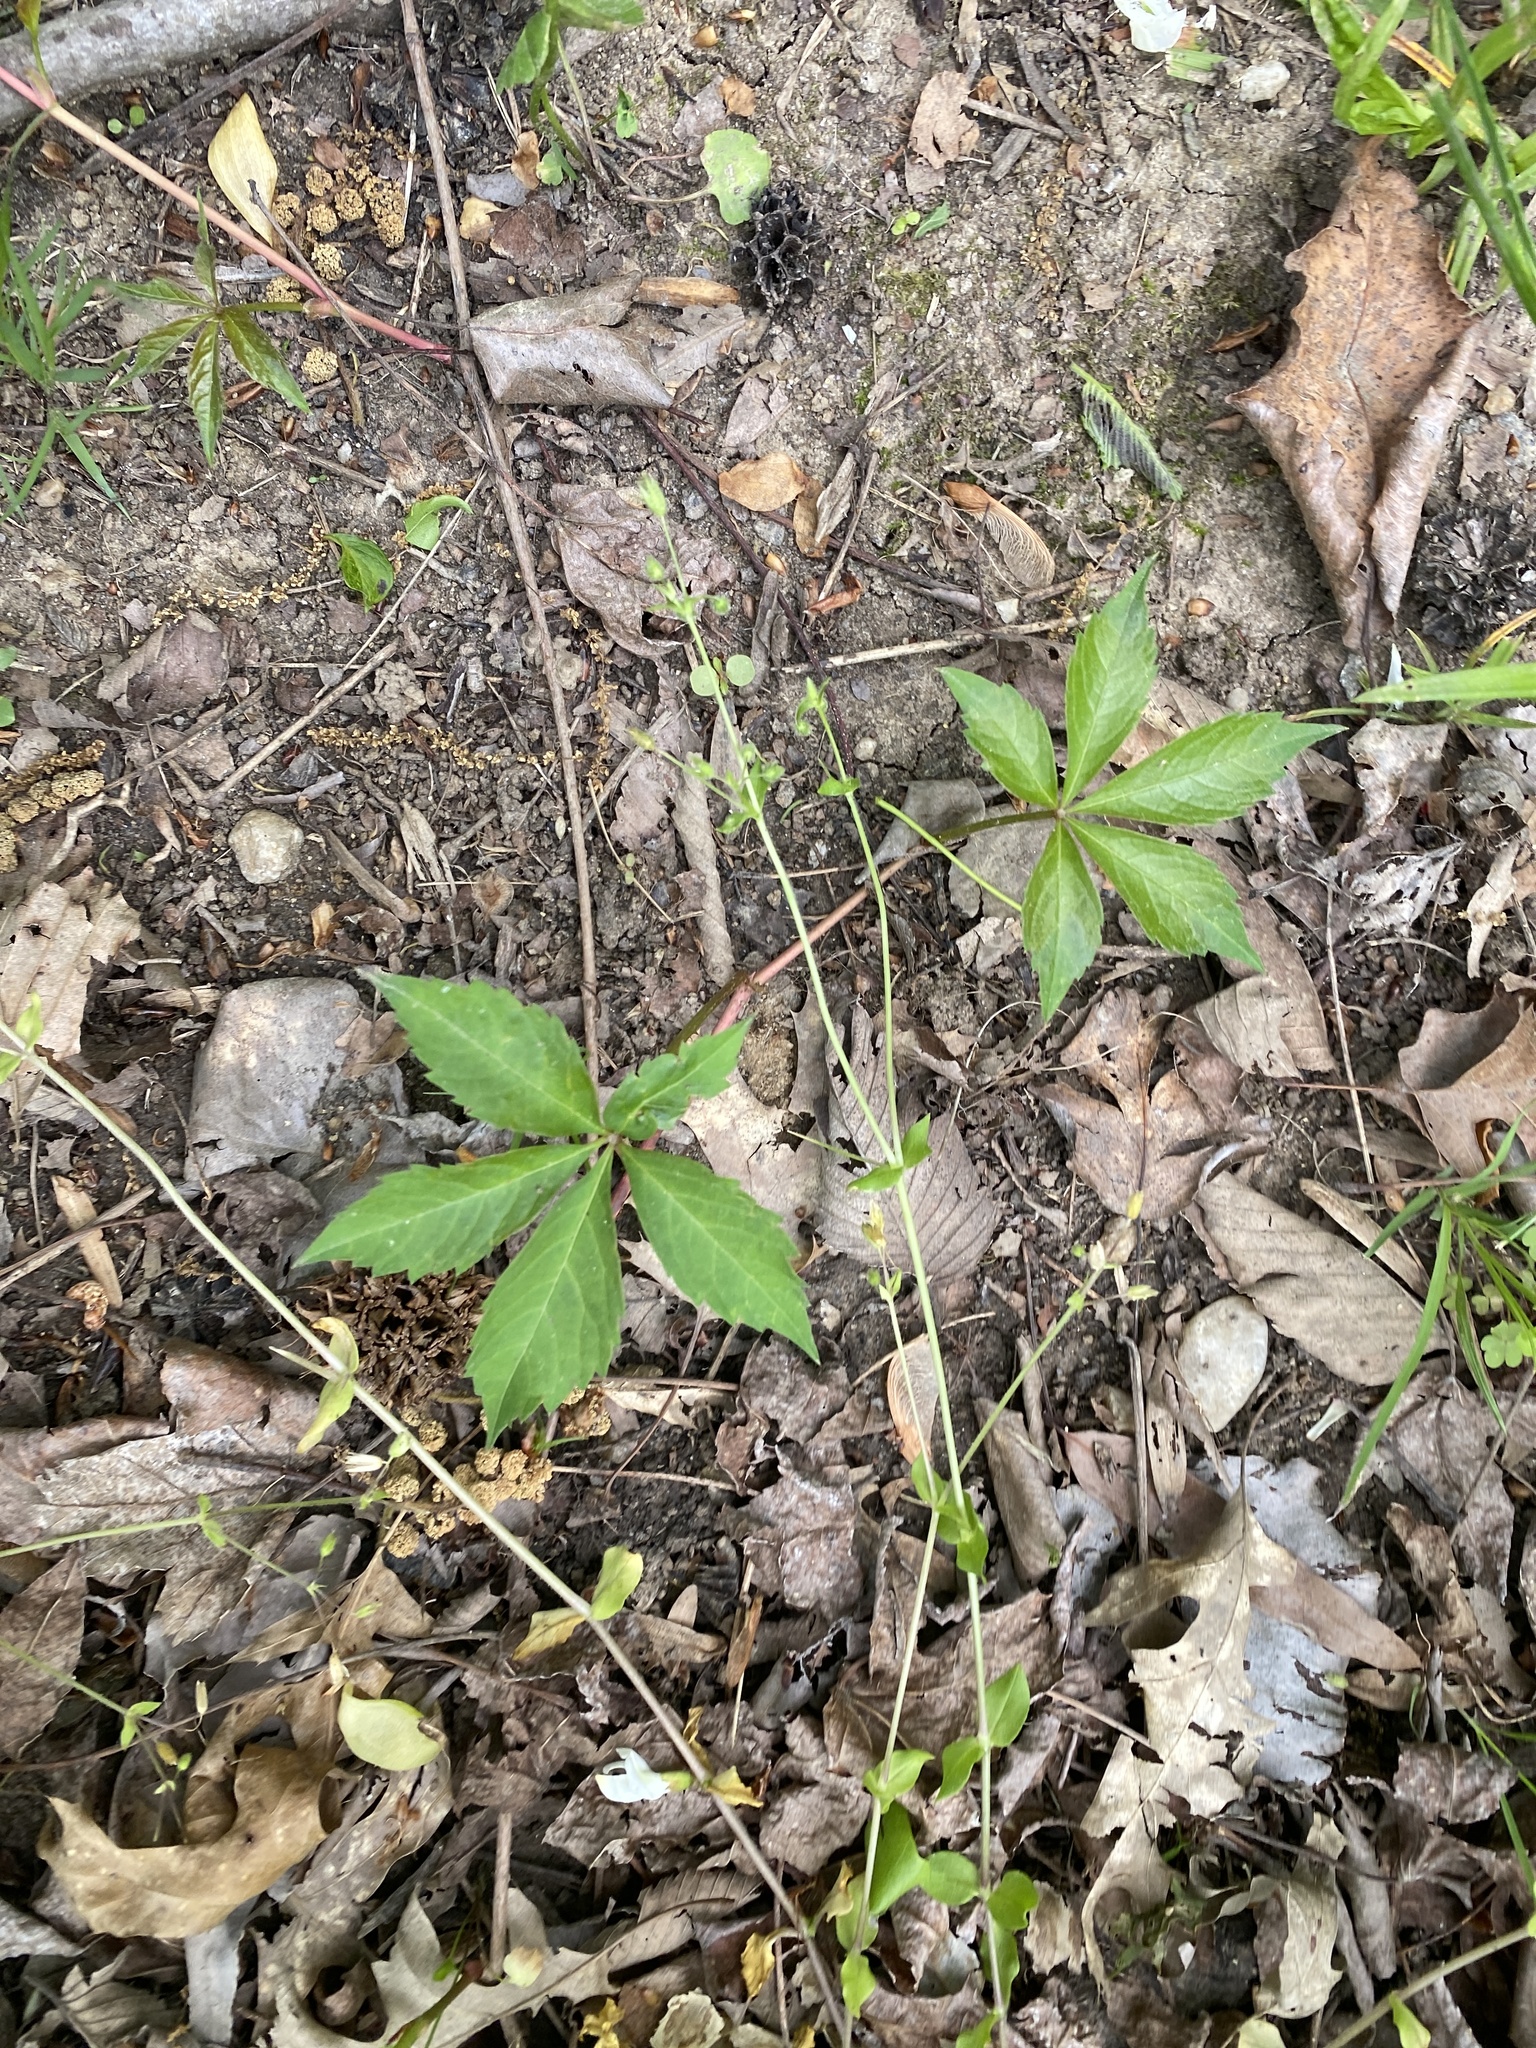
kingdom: Plantae
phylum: Tracheophyta
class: Magnoliopsida
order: Vitales
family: Vitaceae
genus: Parthenocissus
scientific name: Parthenocissus quinquefolia
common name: Virginia-creeper
